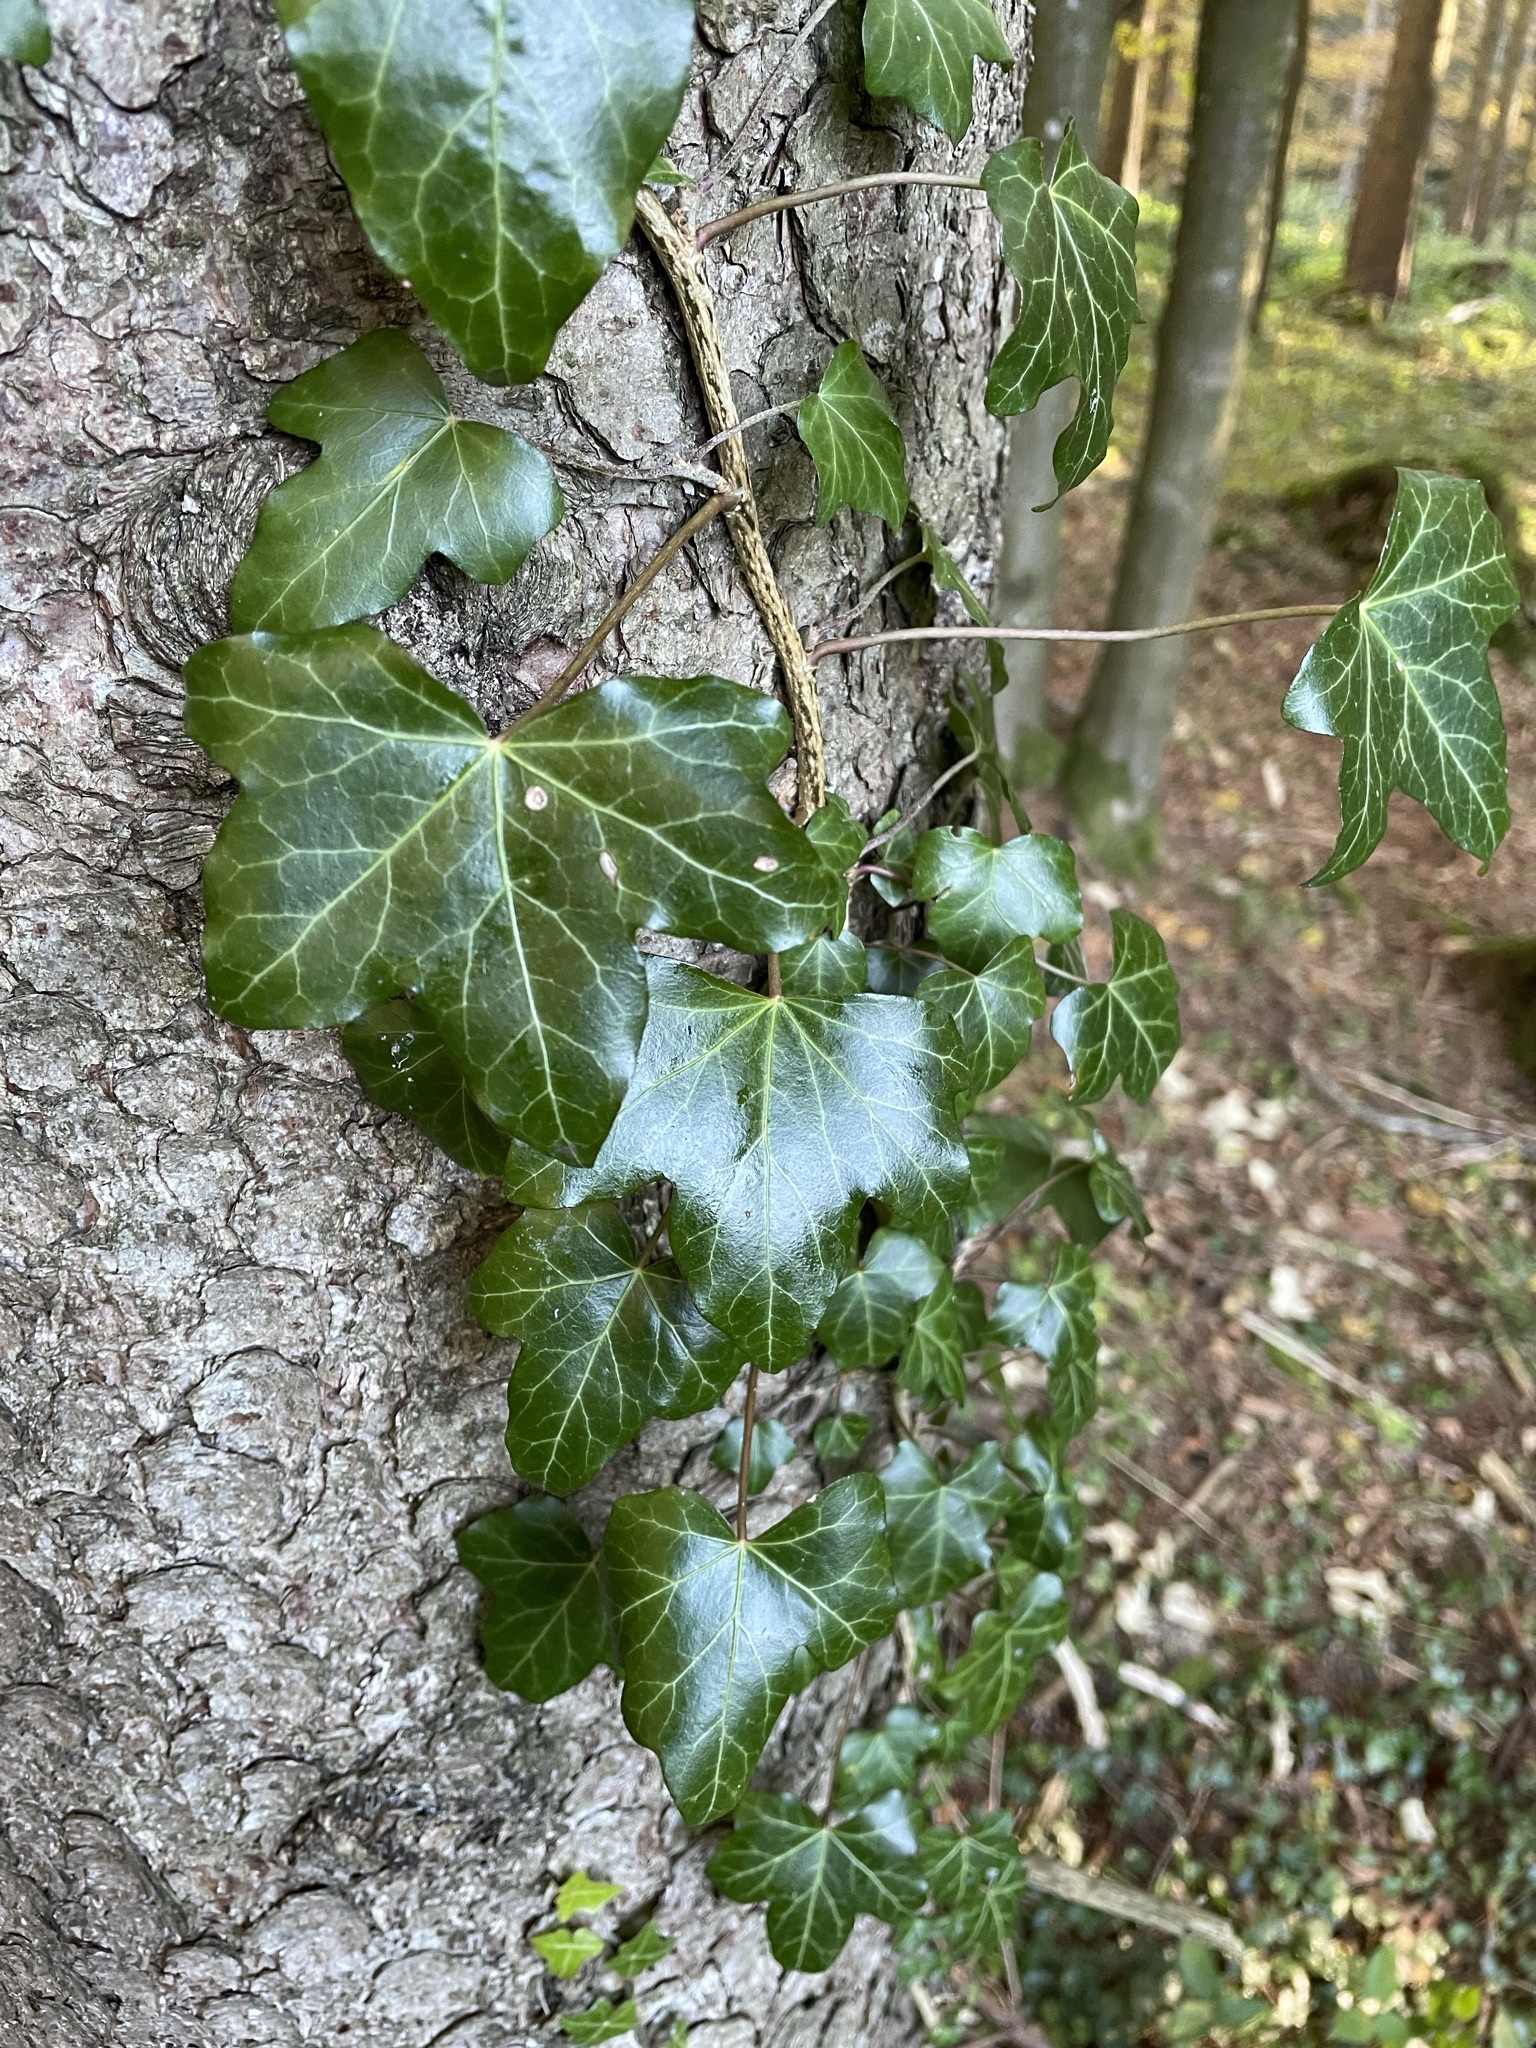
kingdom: Plantae
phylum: Tracheophyta
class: Magnoliopsida
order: Apiales
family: Araliaceae
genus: Hedera
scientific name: Hedera helix
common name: Ivy
